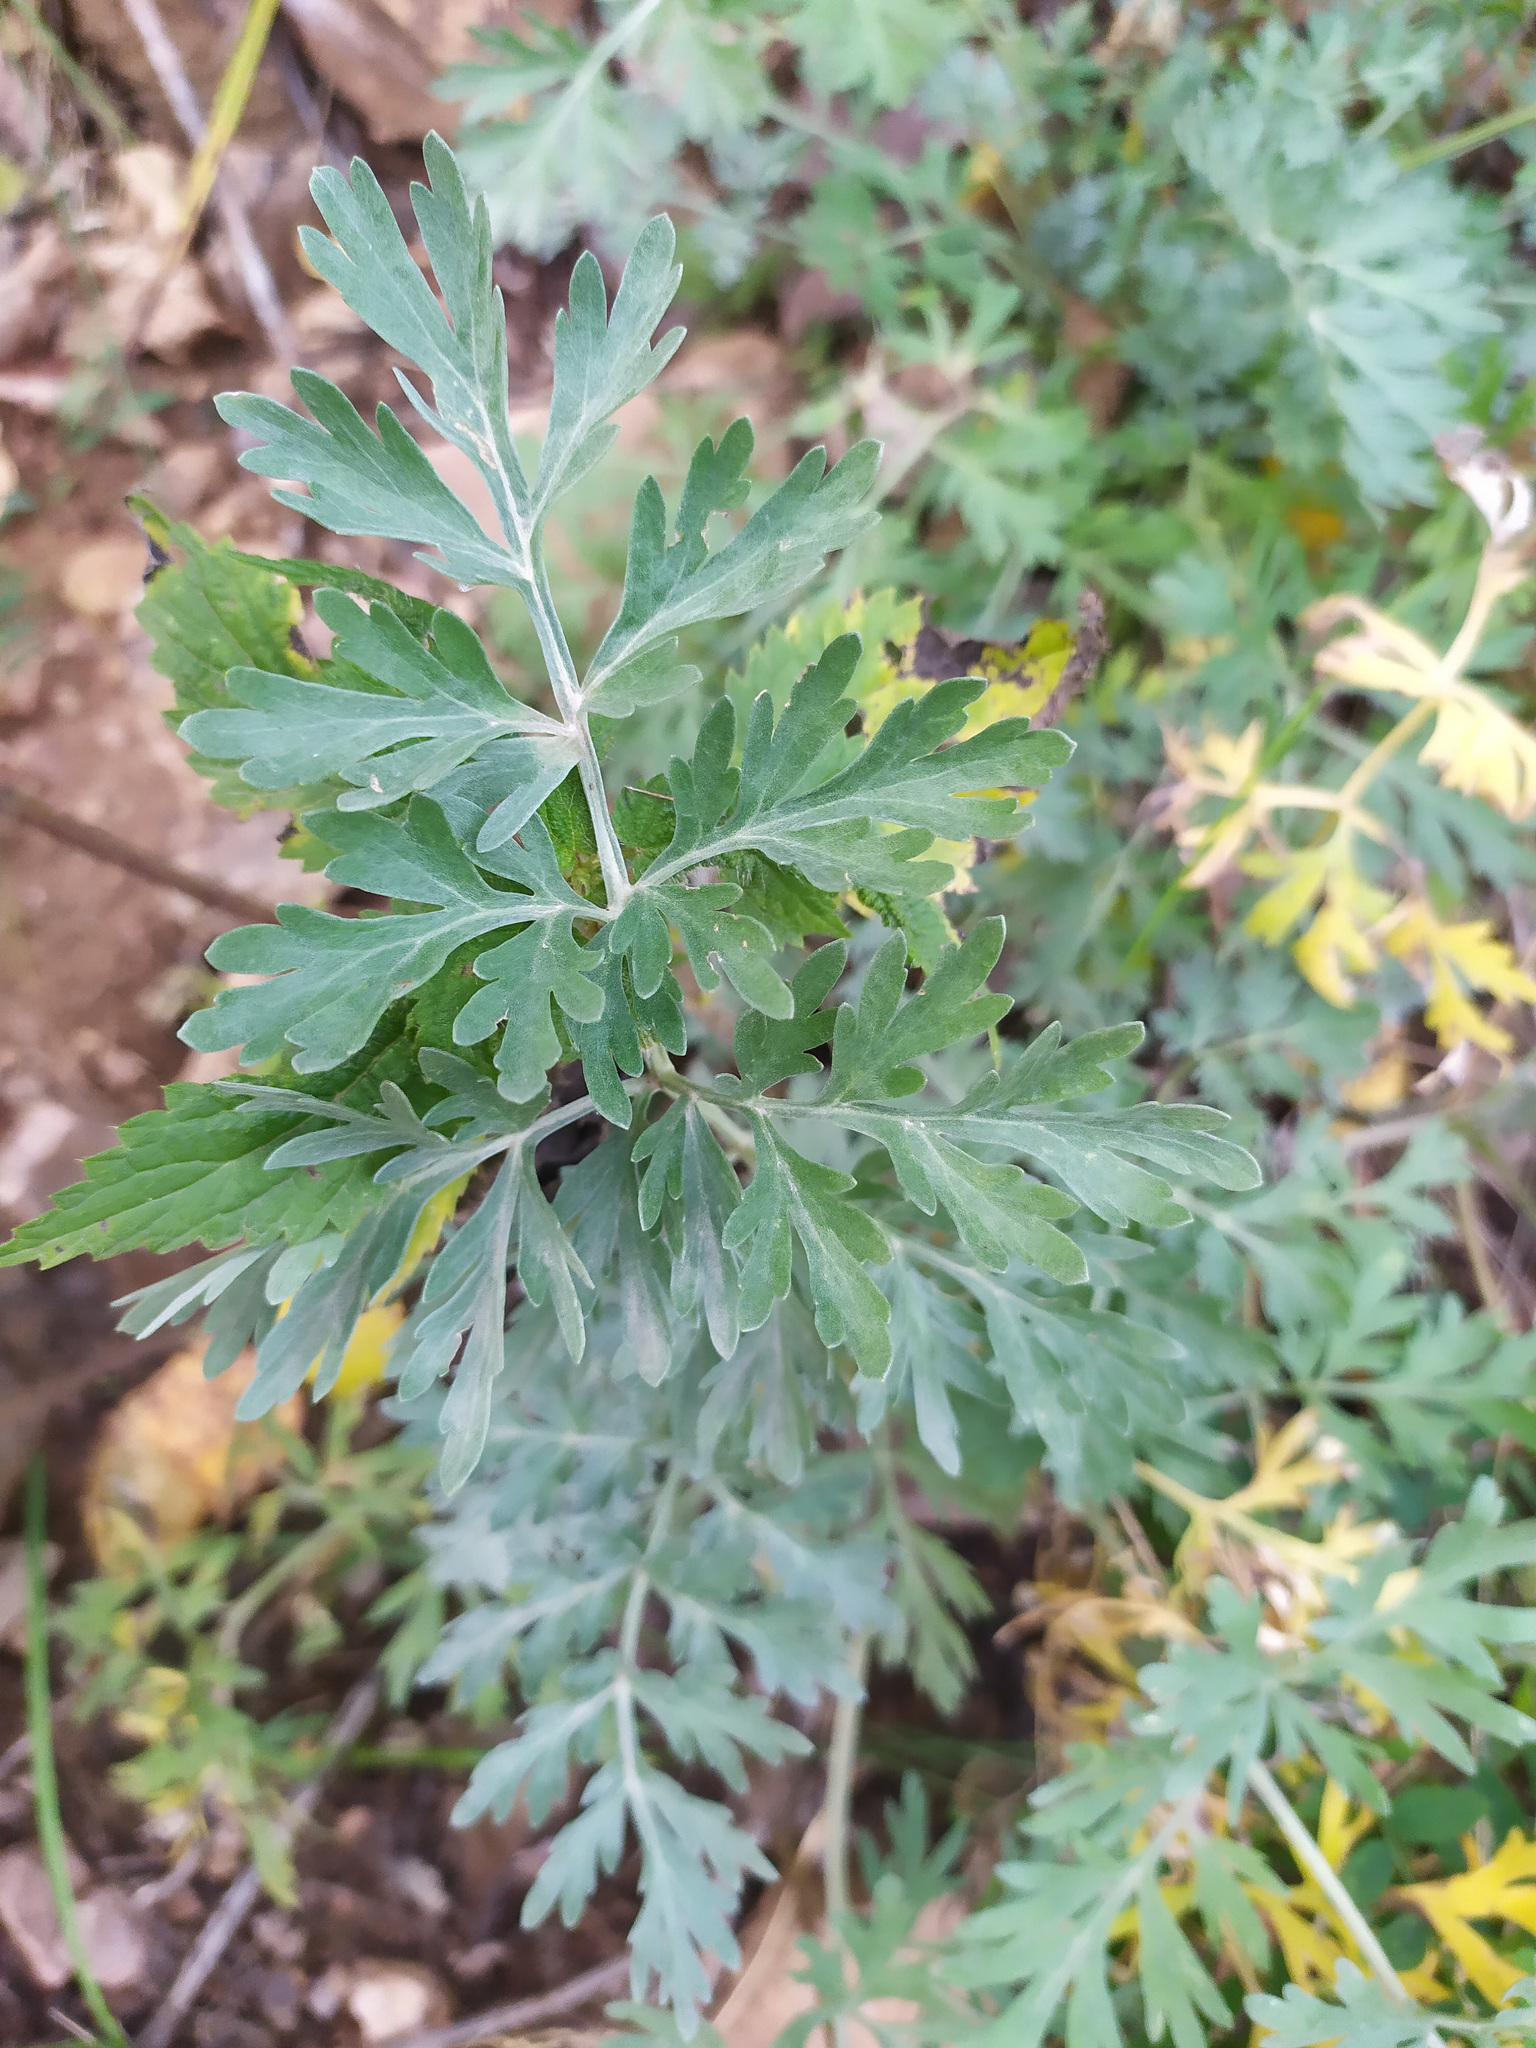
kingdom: Plantae
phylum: Tracheophyta
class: Magnoliopsida
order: Asterales
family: Asteraceae
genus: Artemisia
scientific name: Artemisia absinthium
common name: Wormwood
